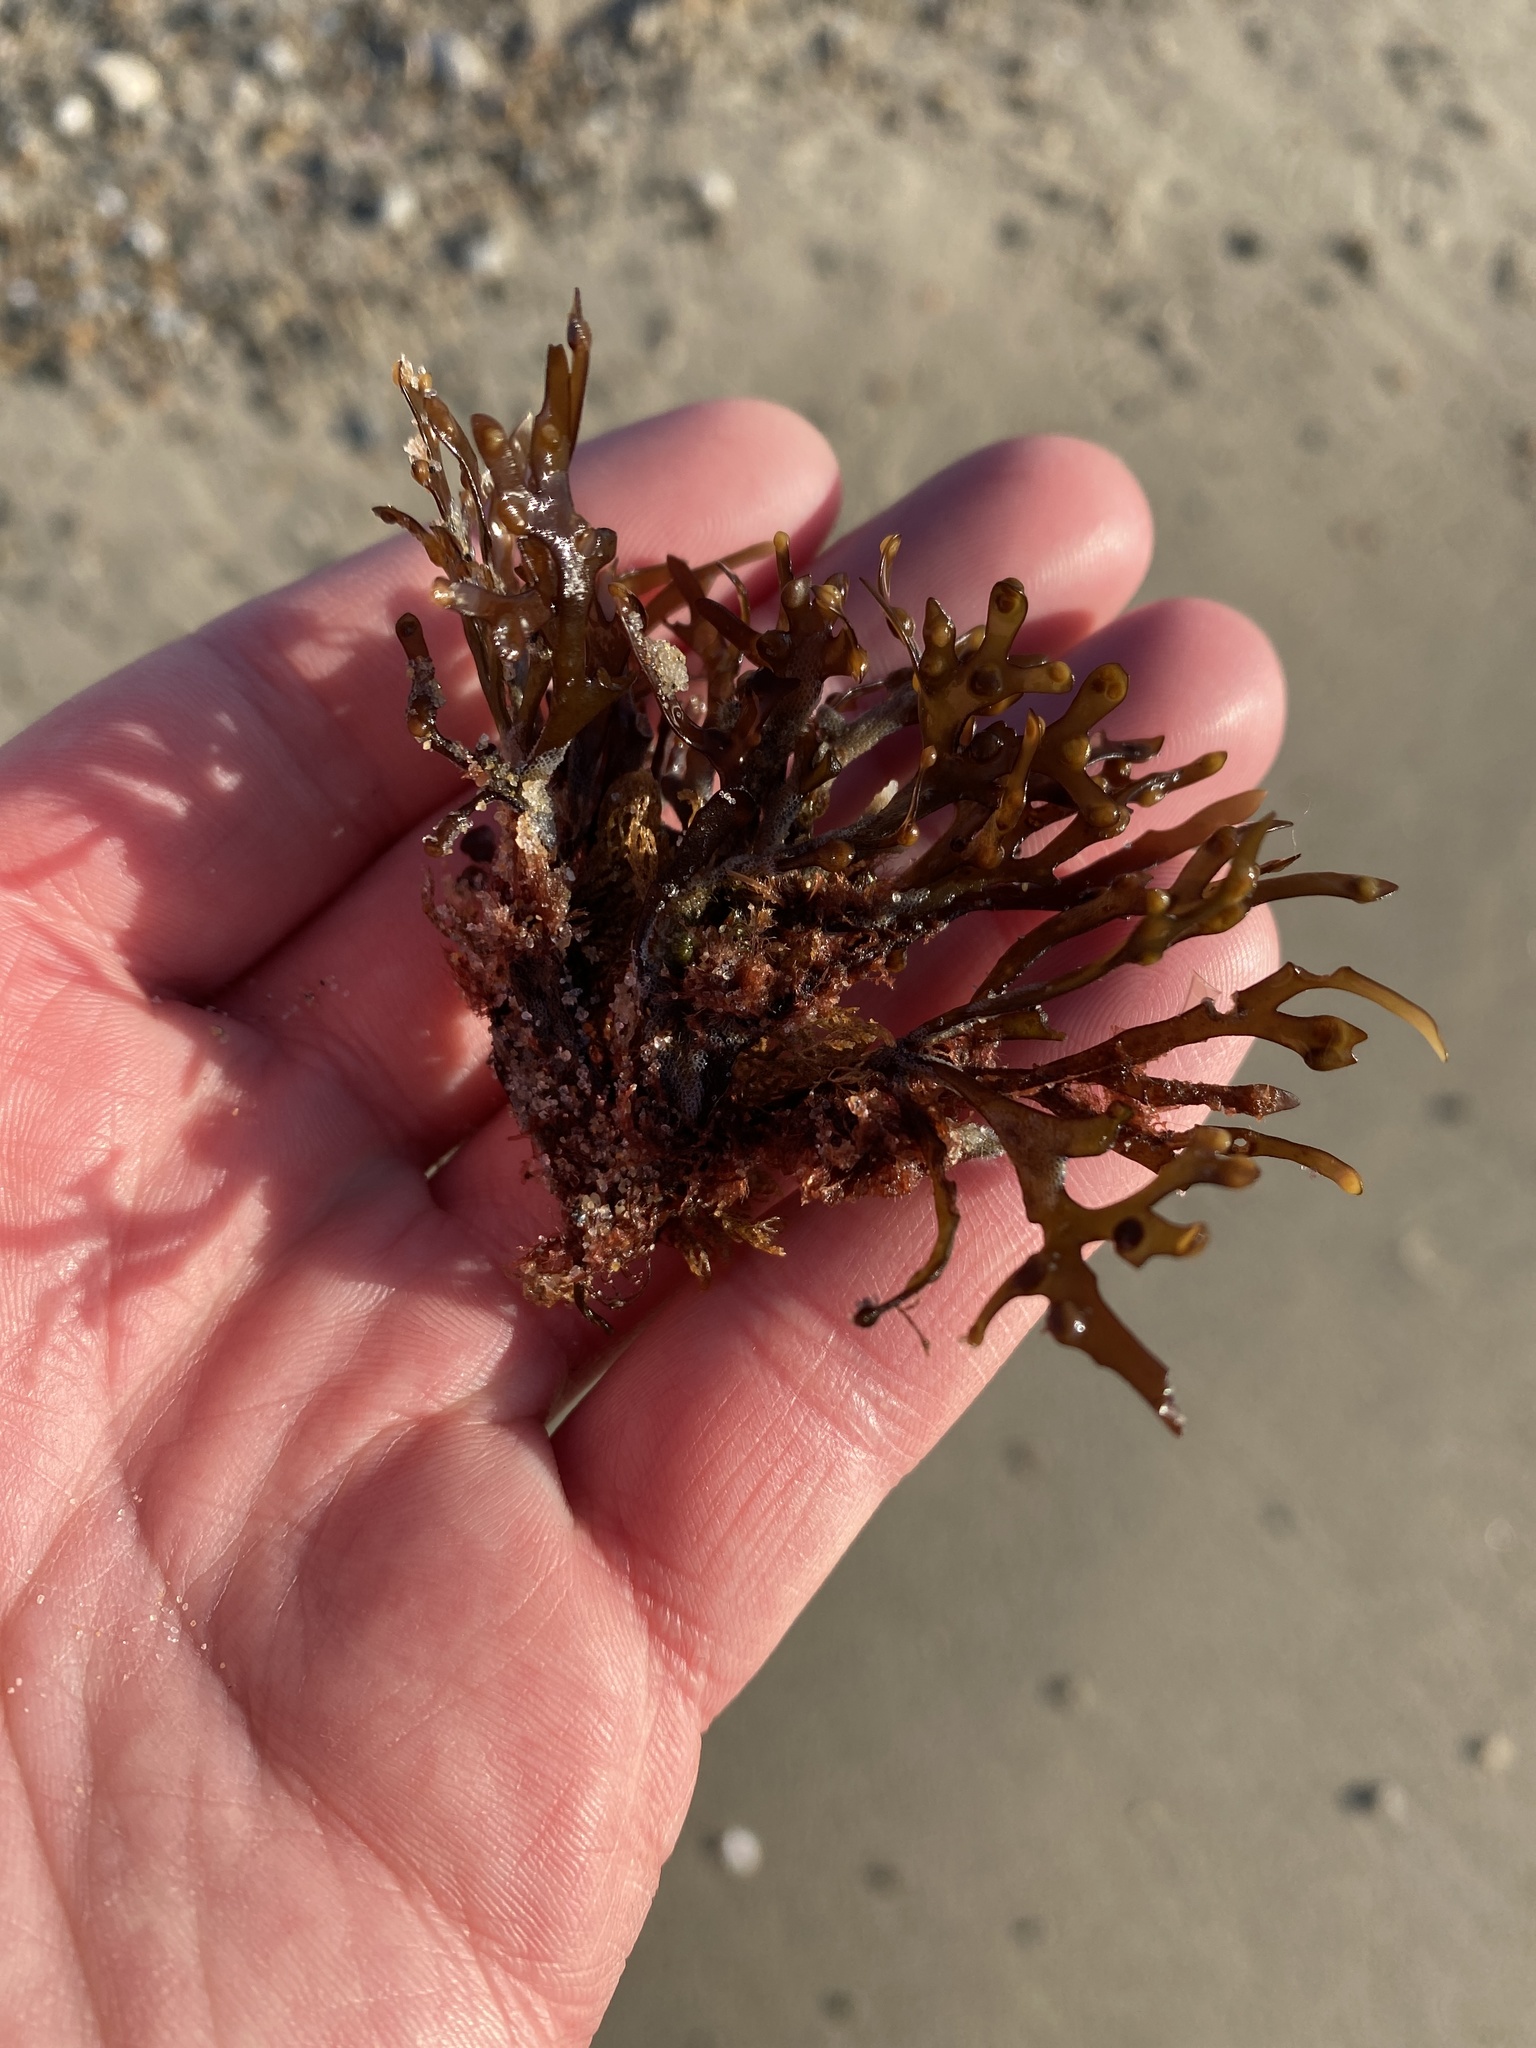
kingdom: Plantae
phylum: Rhodophyta
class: Florideophyceae
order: Gigartinales
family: Gigartinaceae
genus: Chondrus
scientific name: Chondrus crispus
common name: Carrageen
